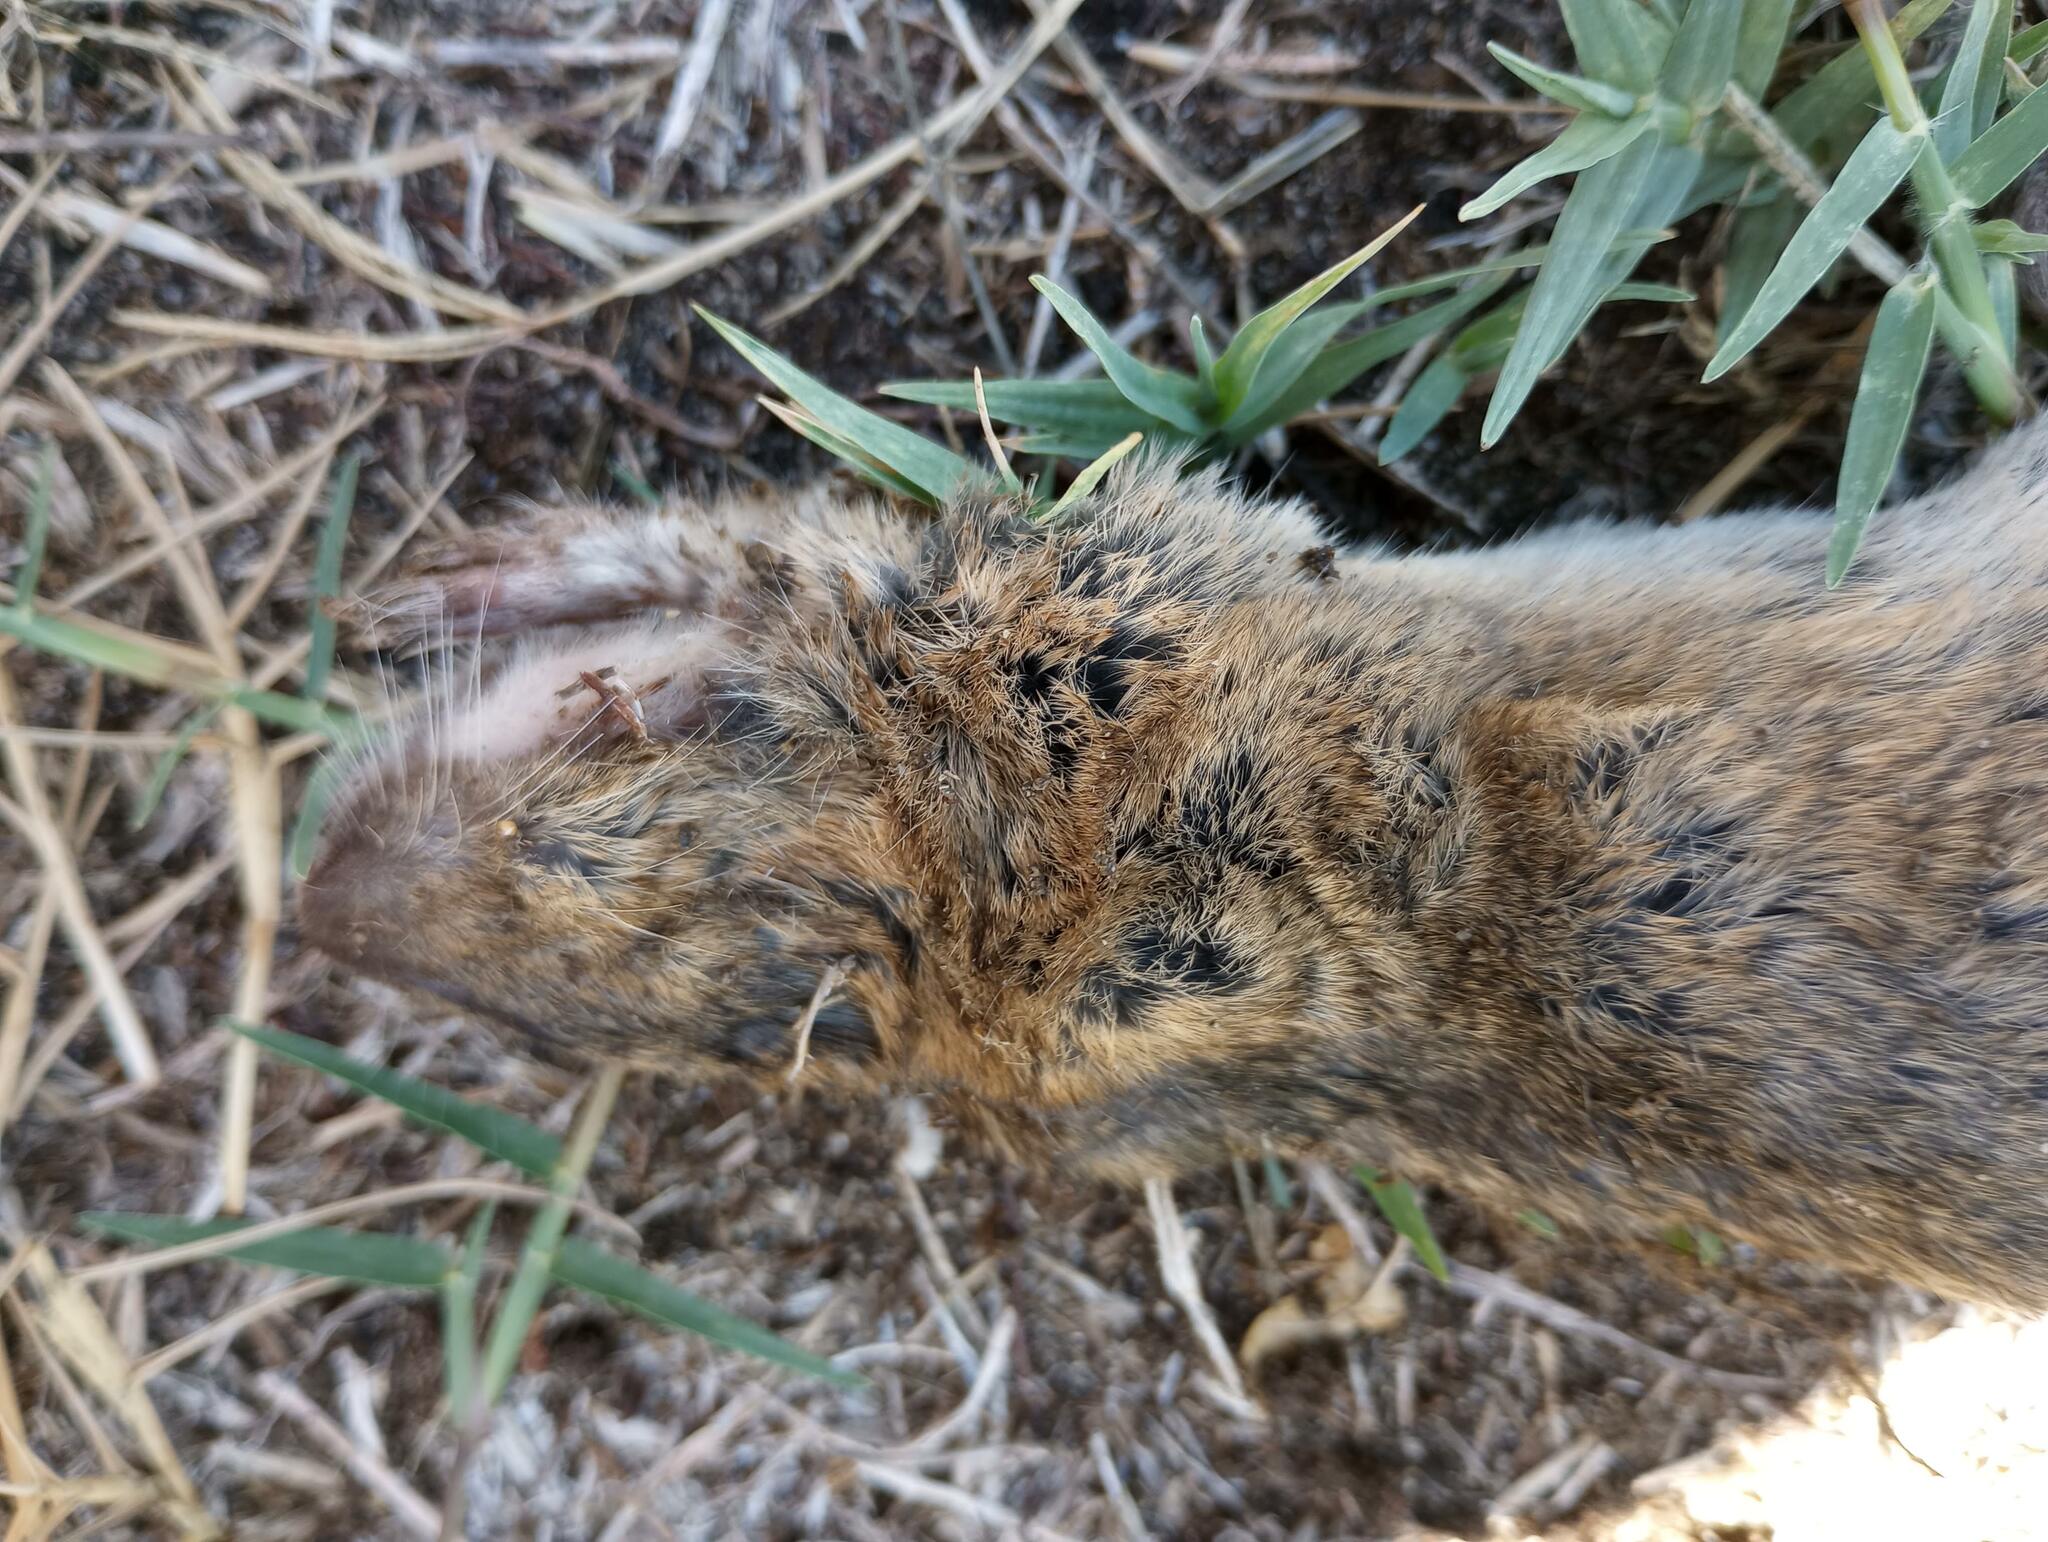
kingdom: Animalia
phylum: Chordata
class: Mammalia
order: Rodentia
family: Geomyidae
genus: Thomomys
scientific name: Thomomys bottae
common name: Botta's pocket gopher
